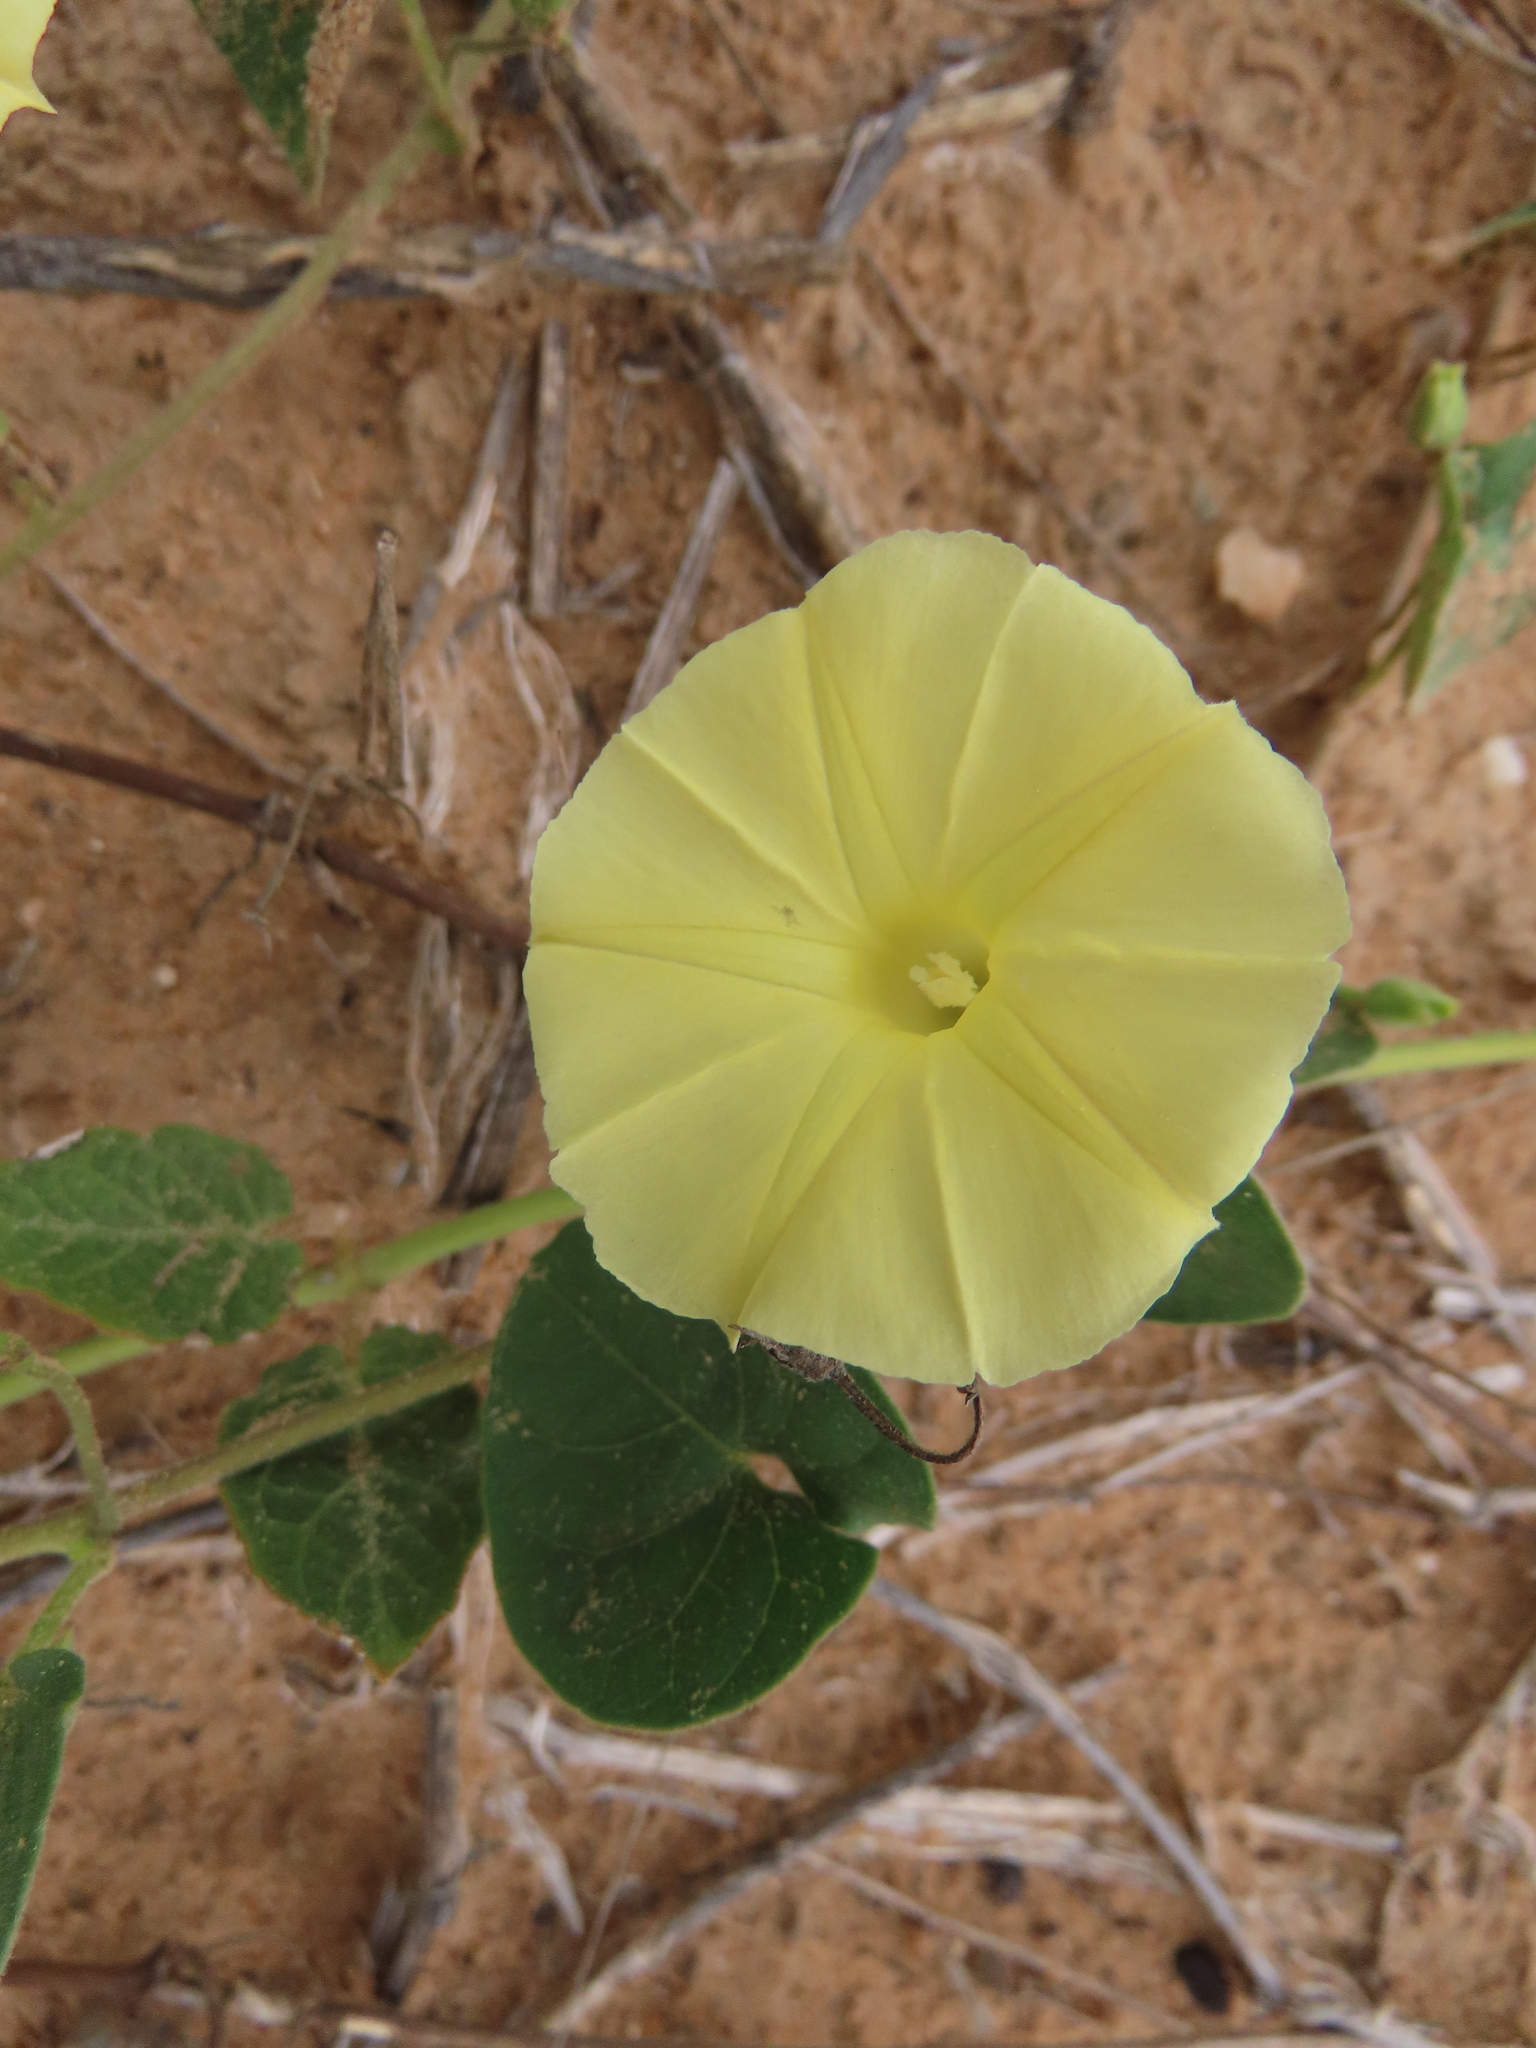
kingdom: Plantae
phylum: Tracheophyta
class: Magnoliopsida
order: Solanales
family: Convolvulaceae
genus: Ipomoea
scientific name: Ipomoea obscura
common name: Obscure morning-glory
